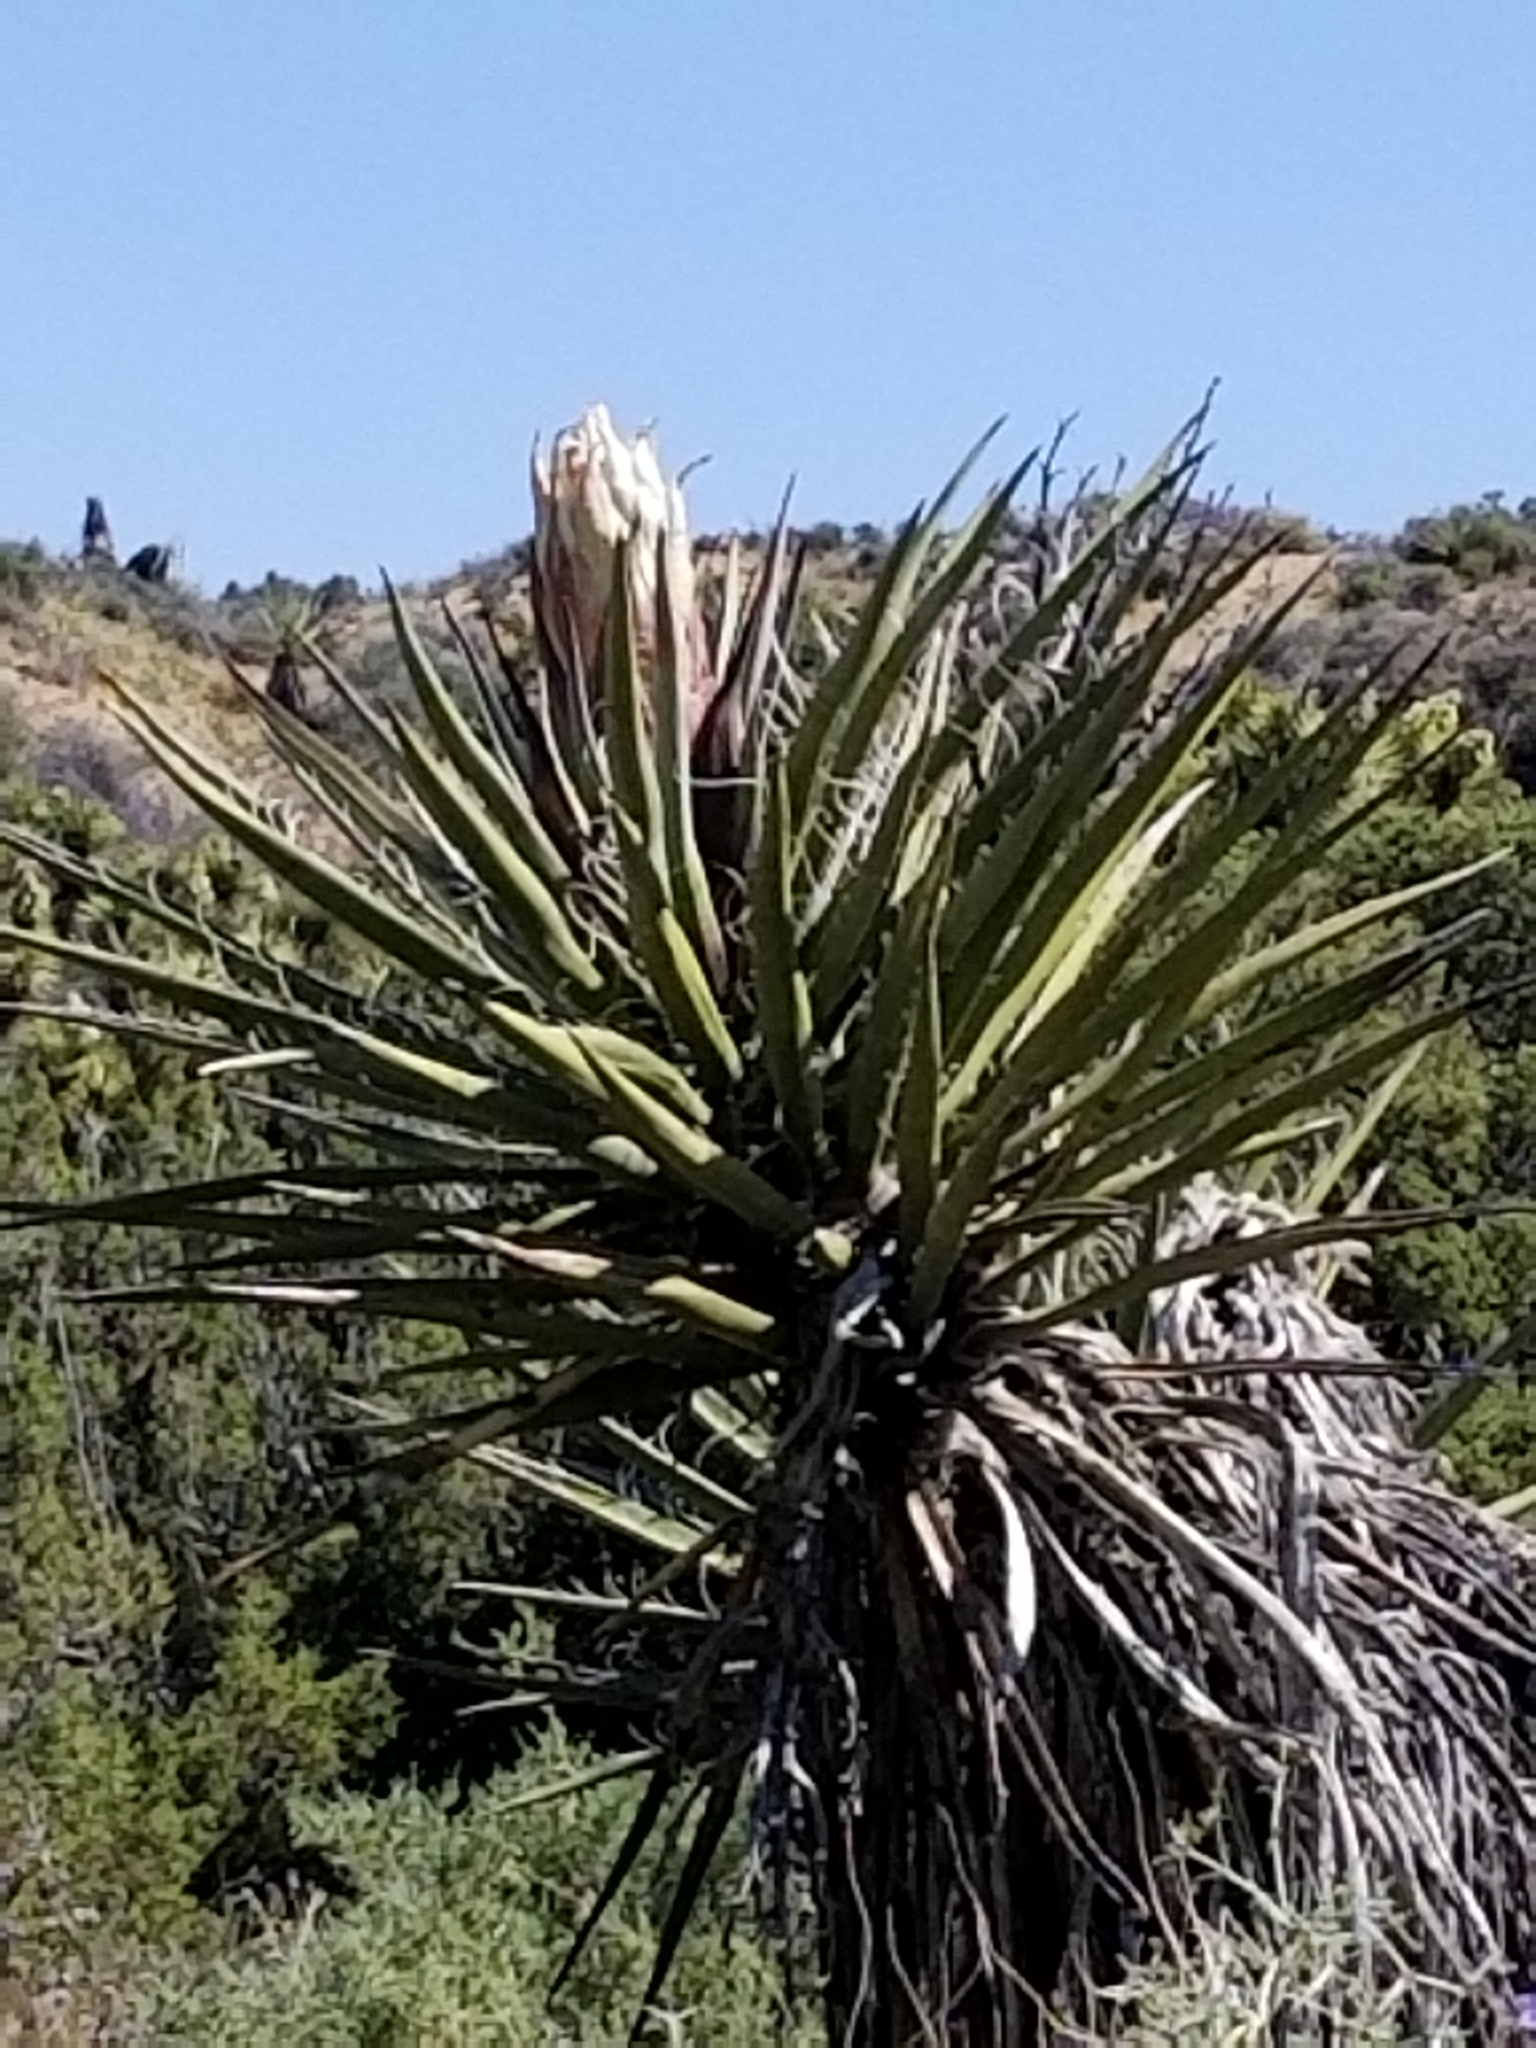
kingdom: Plantae
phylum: Tracheophyta
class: Liliopsida
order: Asparagales
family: Asparagaceae
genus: Yucca
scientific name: Yucca schidigera
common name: Mojave yucca
